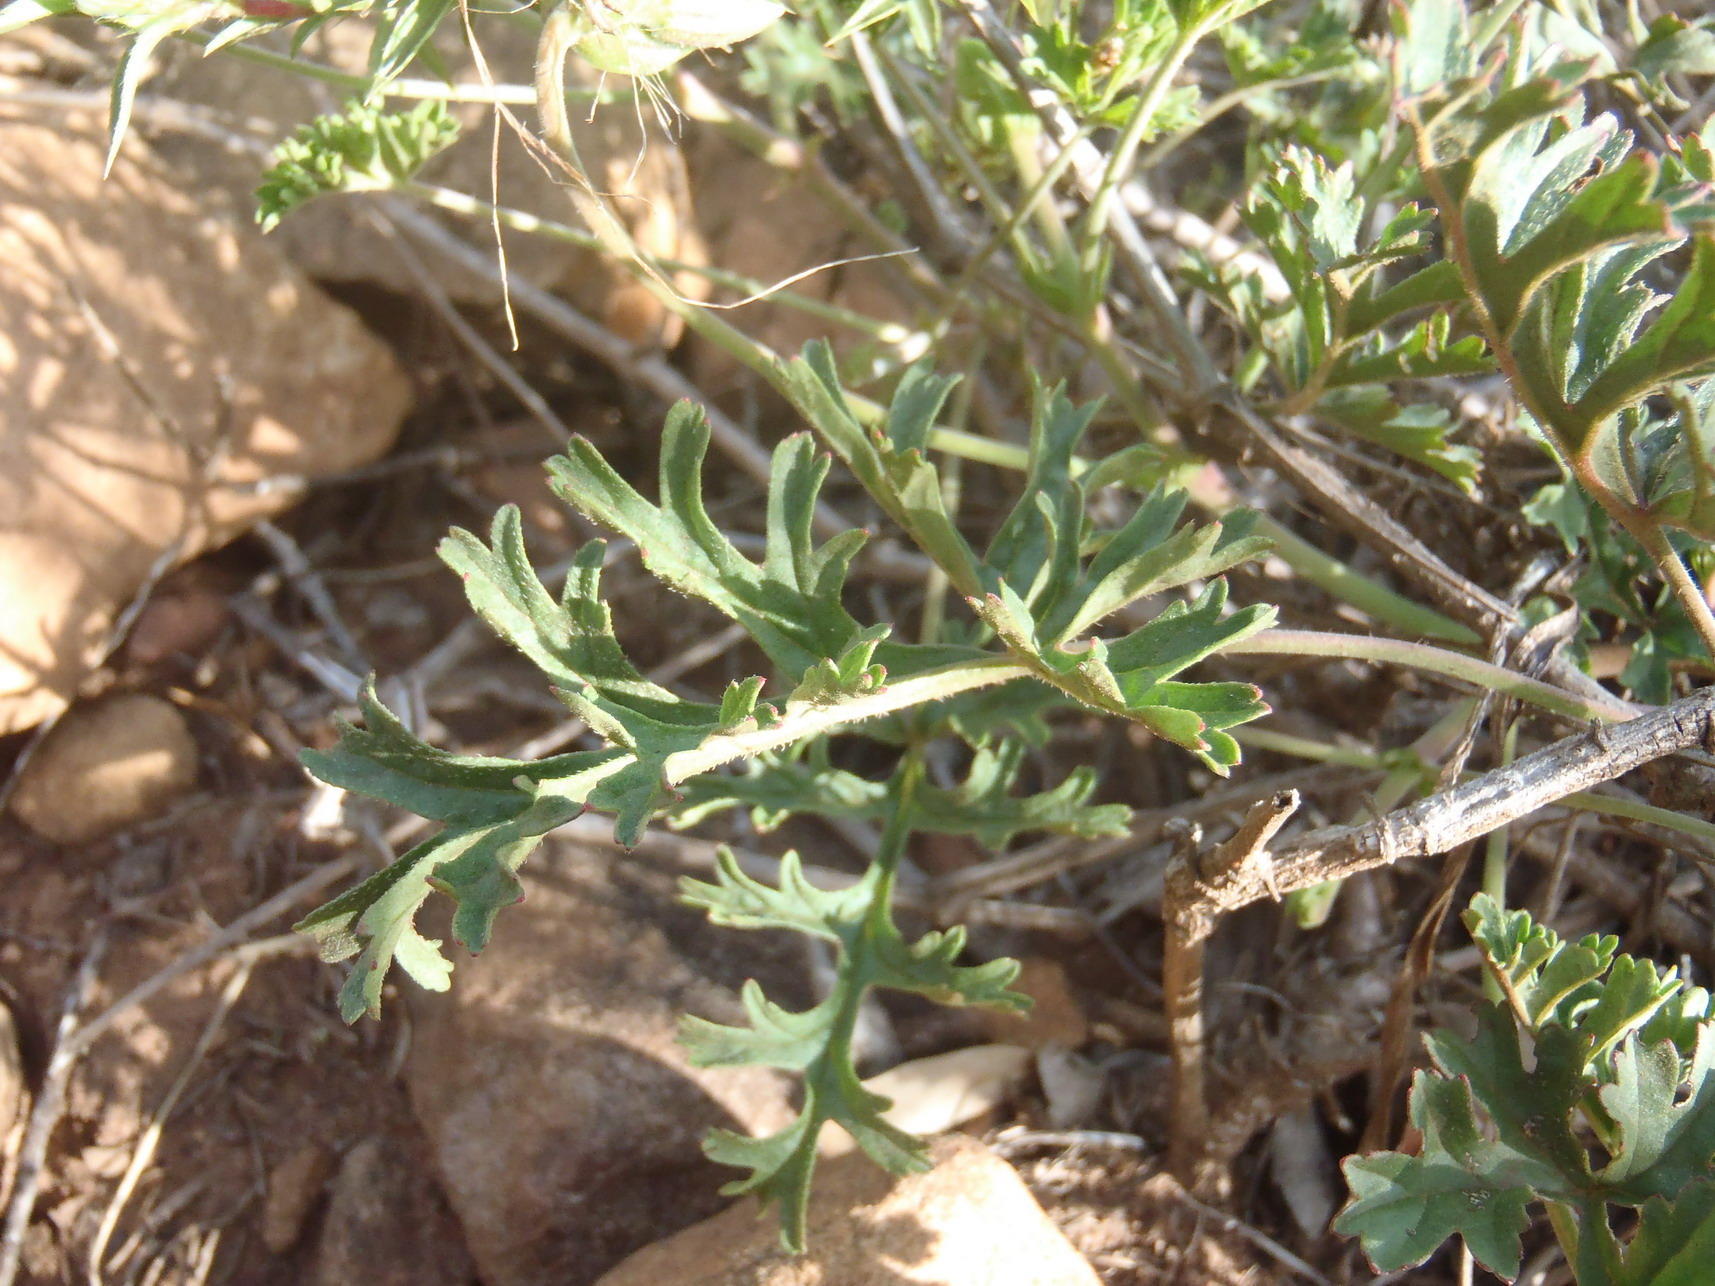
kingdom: Plantae
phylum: Tracheophyta
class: Magnoliopsida
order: Geraniales
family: Geraniaceae
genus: Pelargonium
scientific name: Pelargonium myrrhifolium
